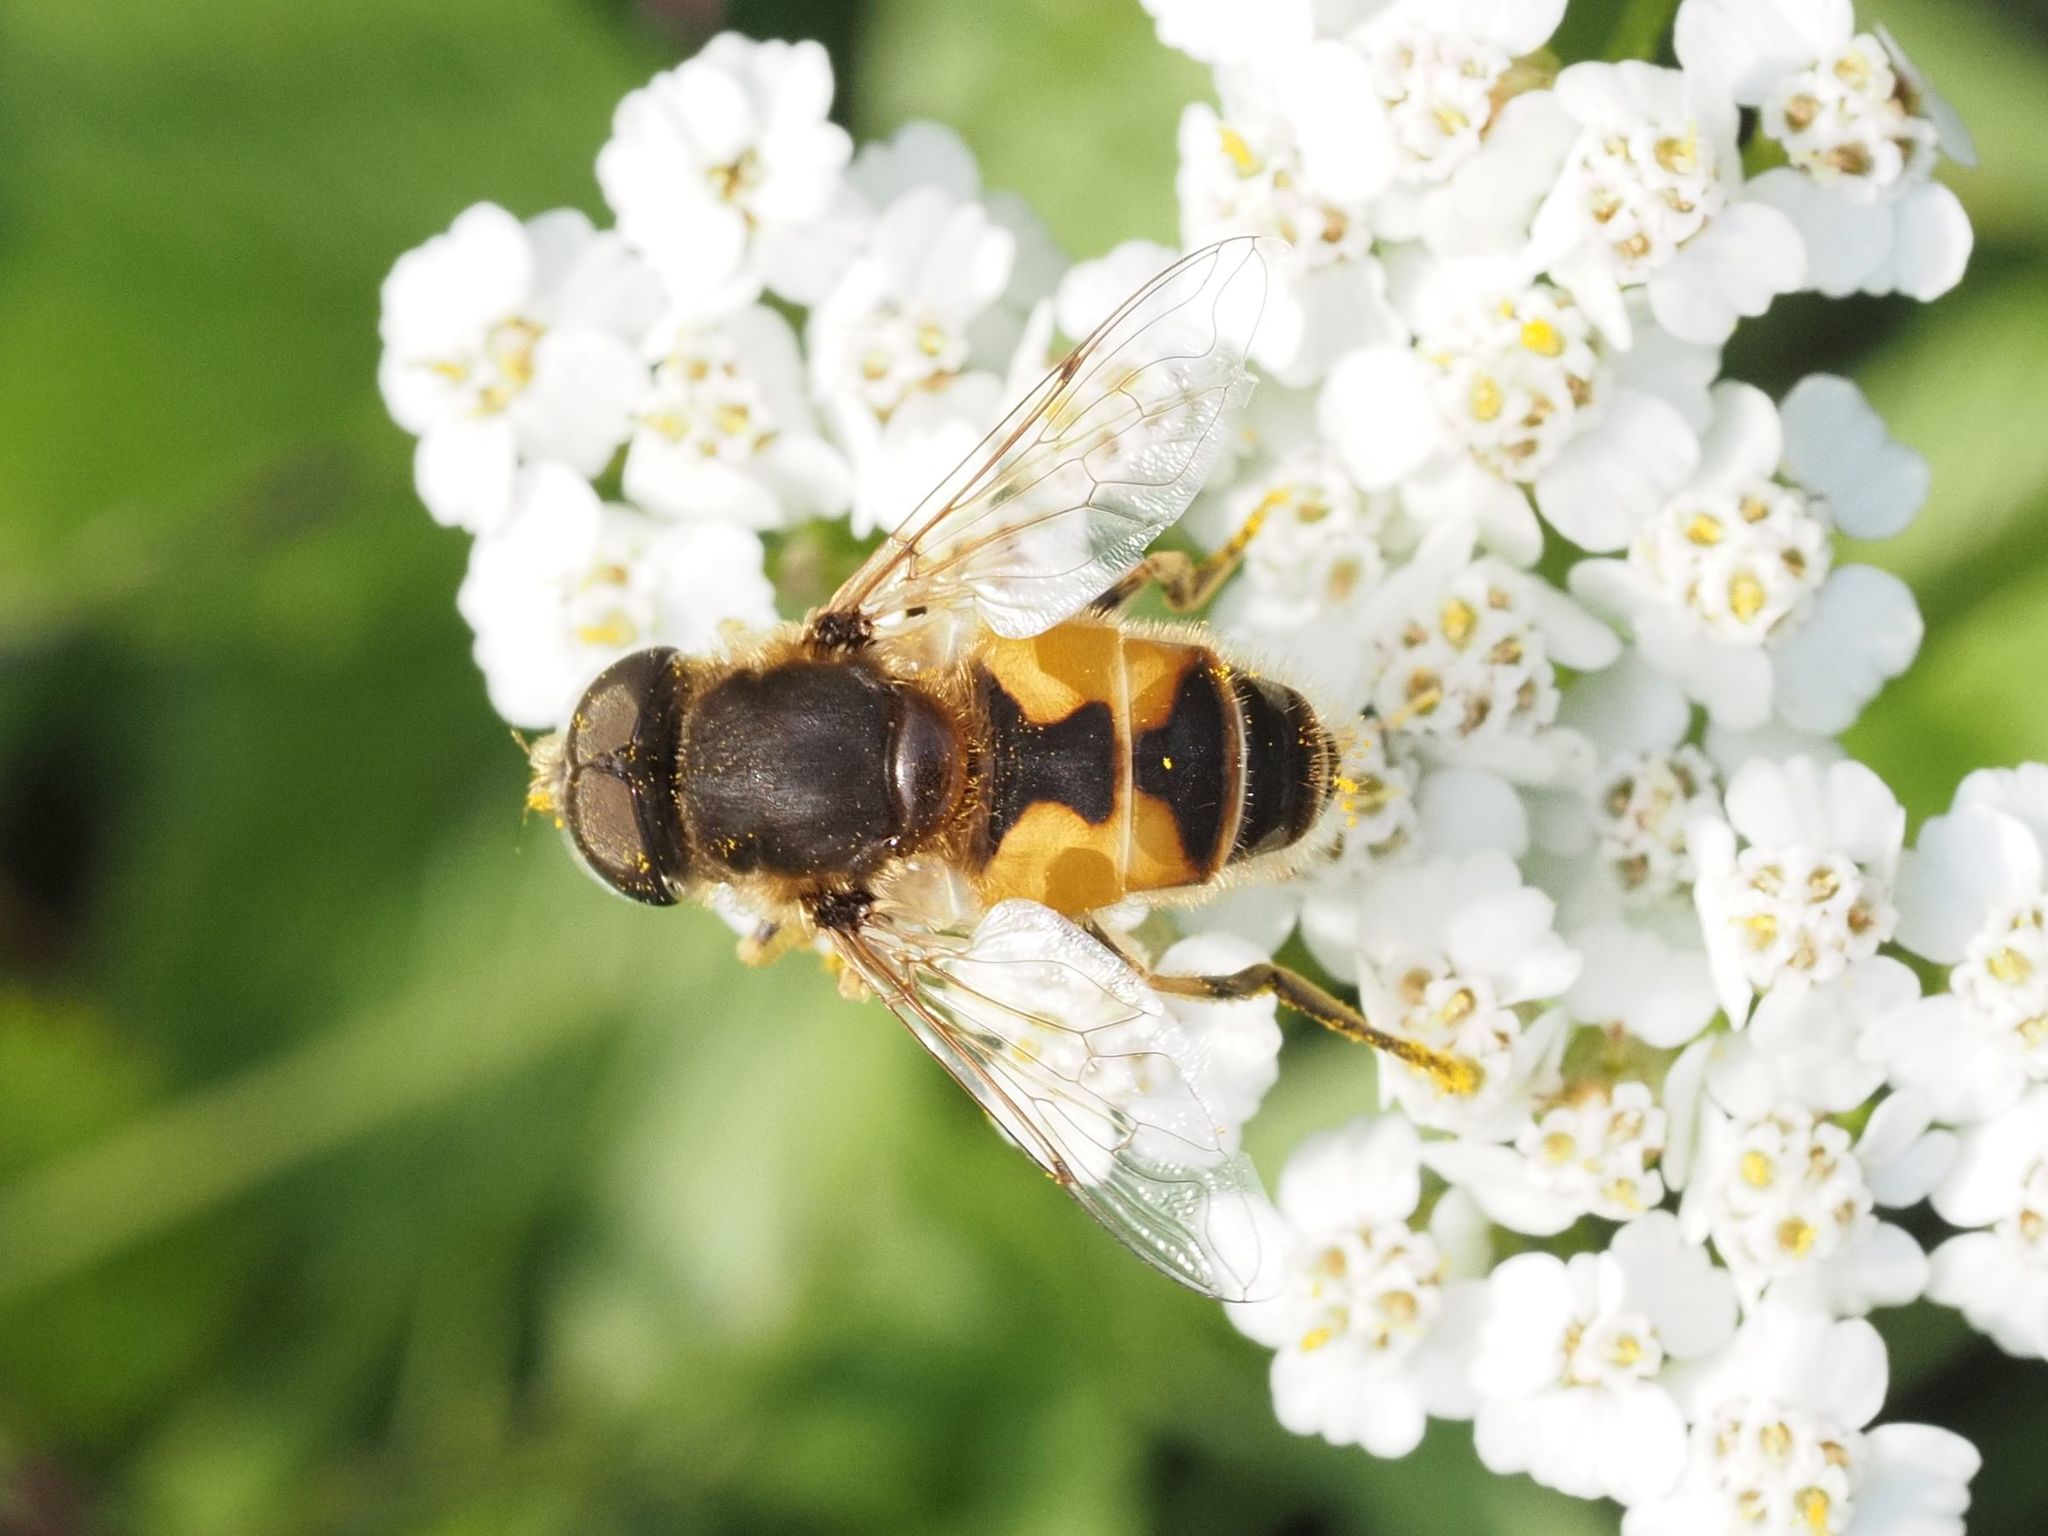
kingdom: Animalia
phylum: Arthropoda
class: Insecta
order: Diptera
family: Syrphidae
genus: Eristalis
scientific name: Eristalis arbustorum
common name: Hover fly
